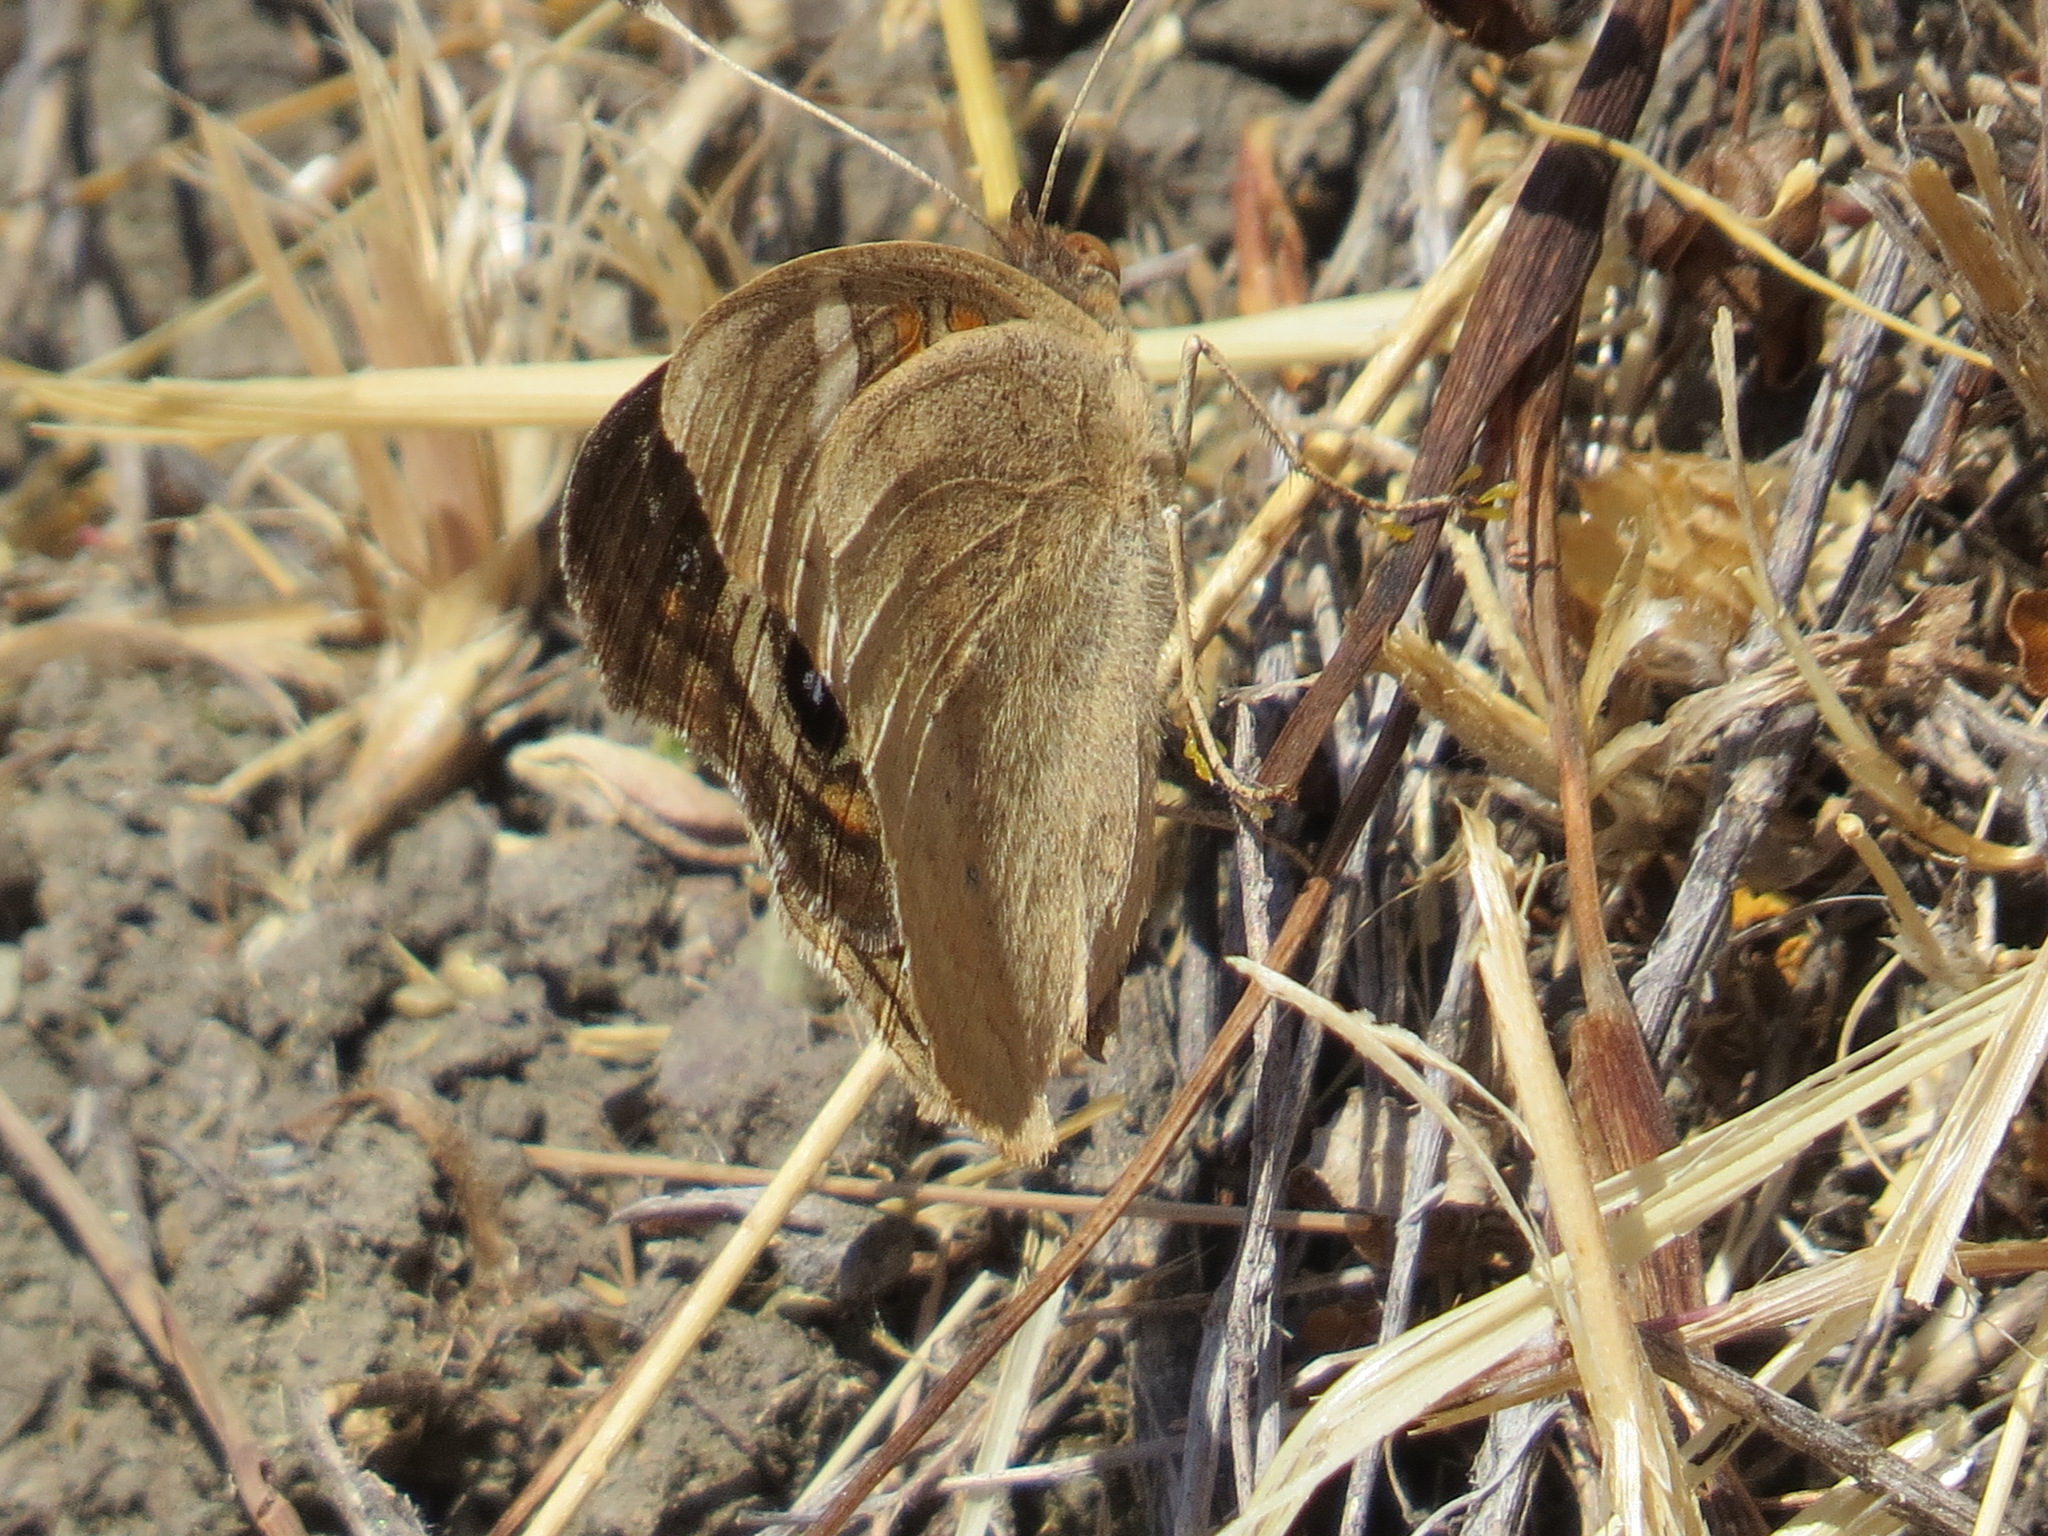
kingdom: Animalia
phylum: Arthropoda
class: Insecta
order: Lepidoptera
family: Nymphalidae
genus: Junonia
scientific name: Junonia grisea
